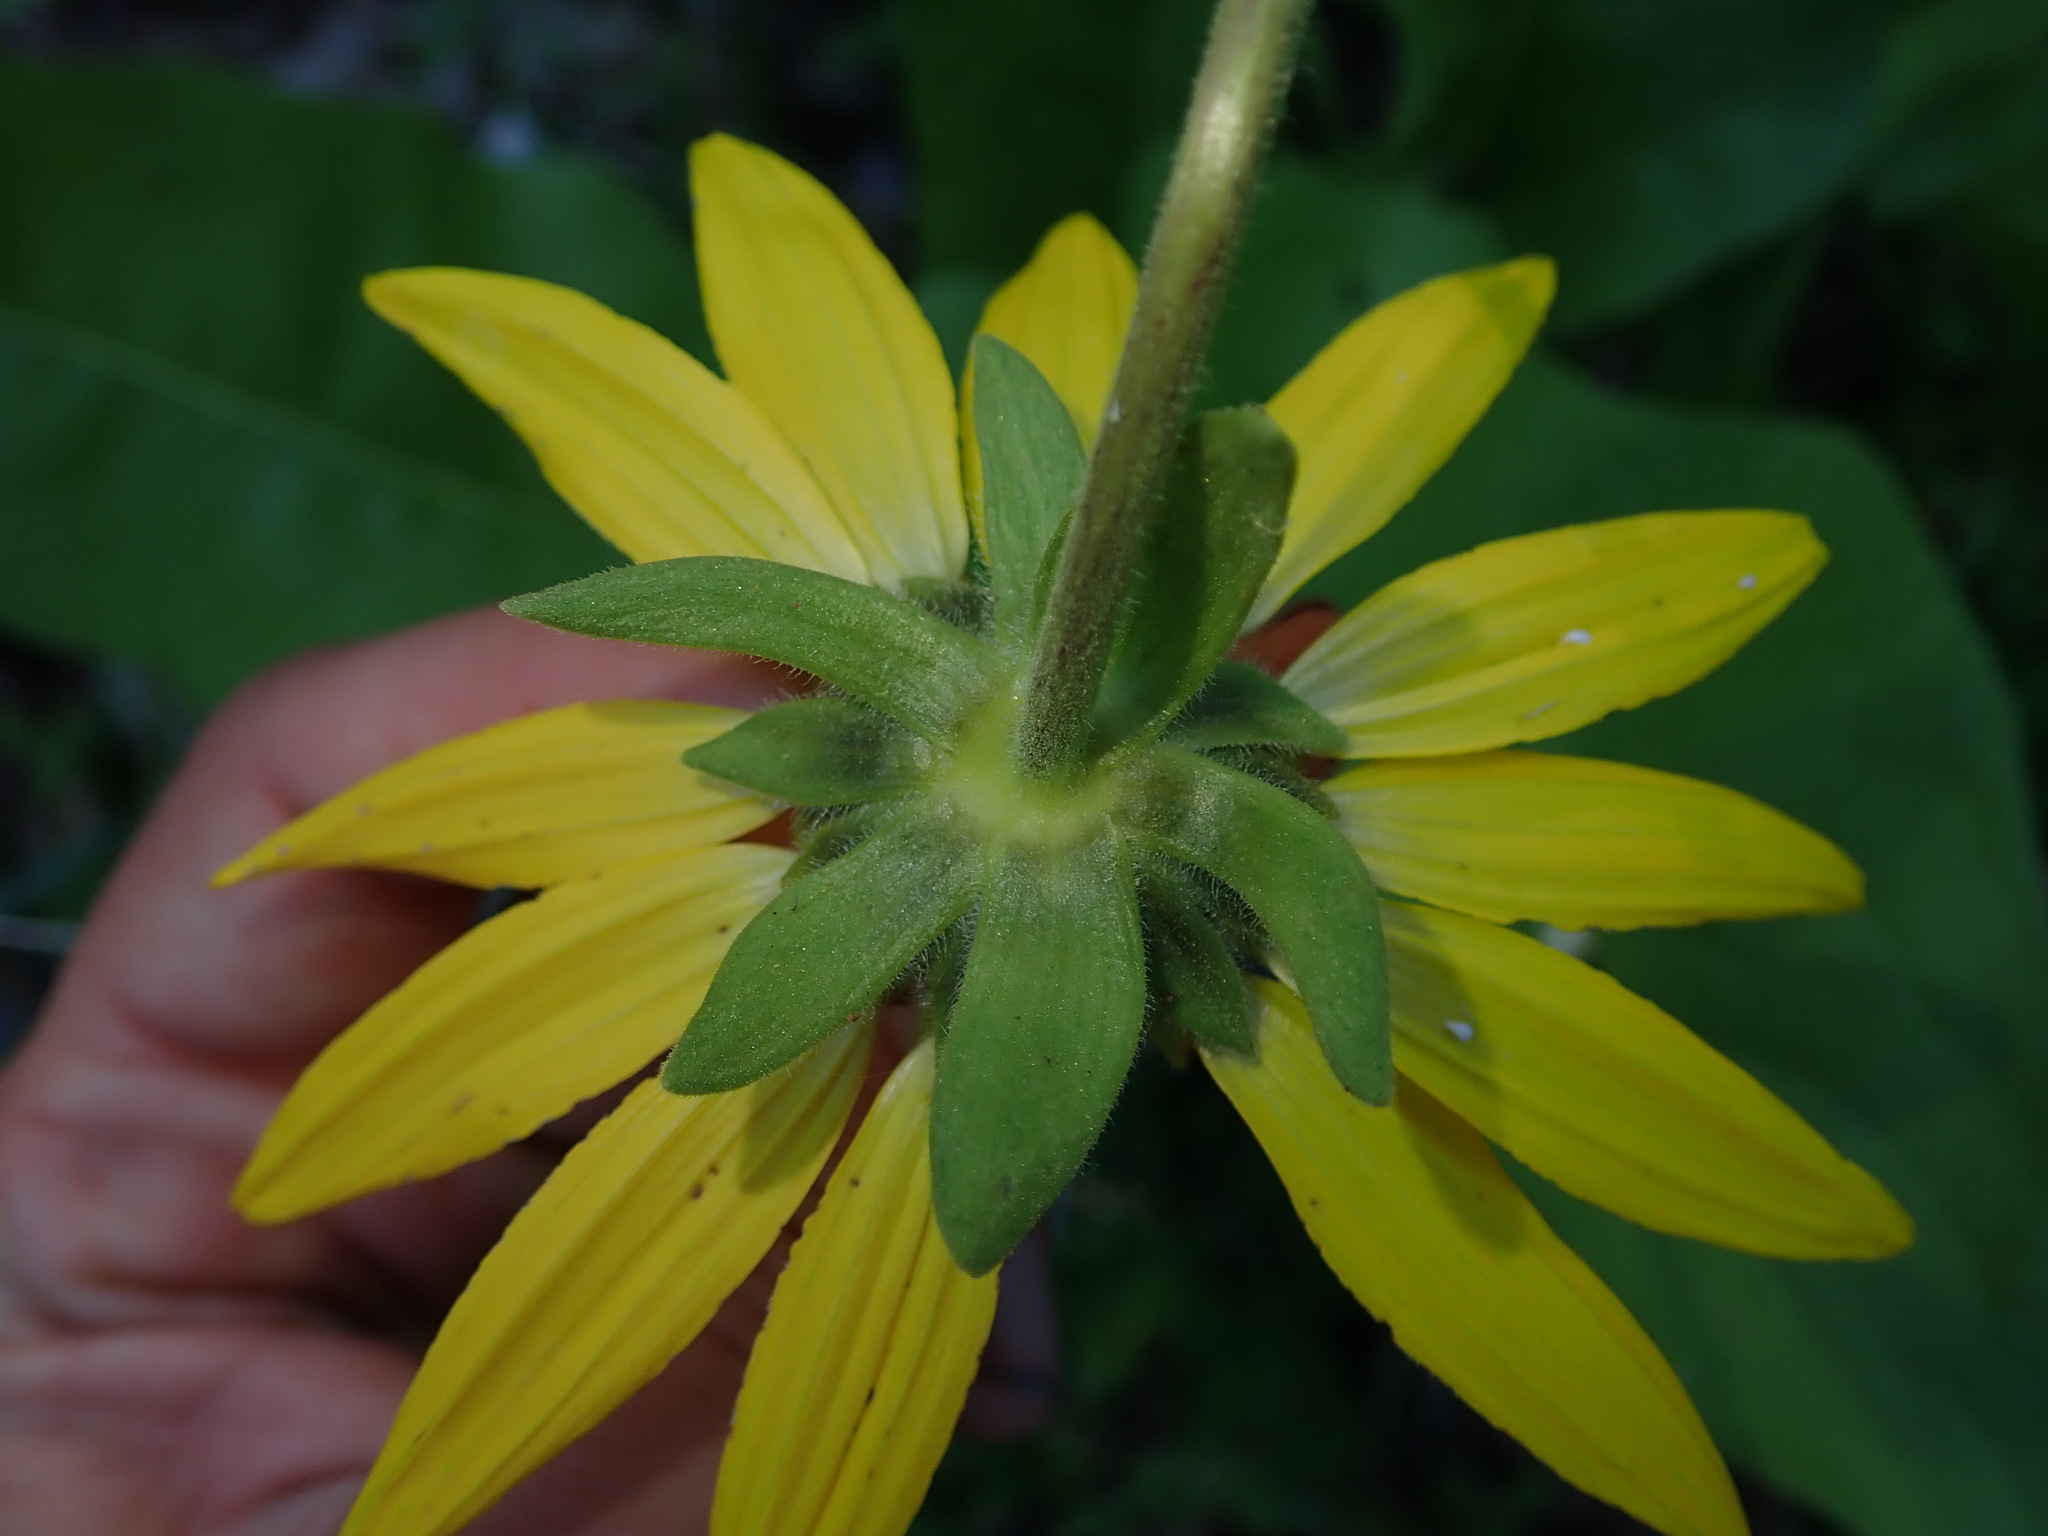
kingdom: Plantae
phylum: Tracheophyta
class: Magnoliopsida
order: Asterales
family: Asteraceae
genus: Balsamorhiza
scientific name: Balsamorhiza deltoidea
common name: Deltoid balsamroot
